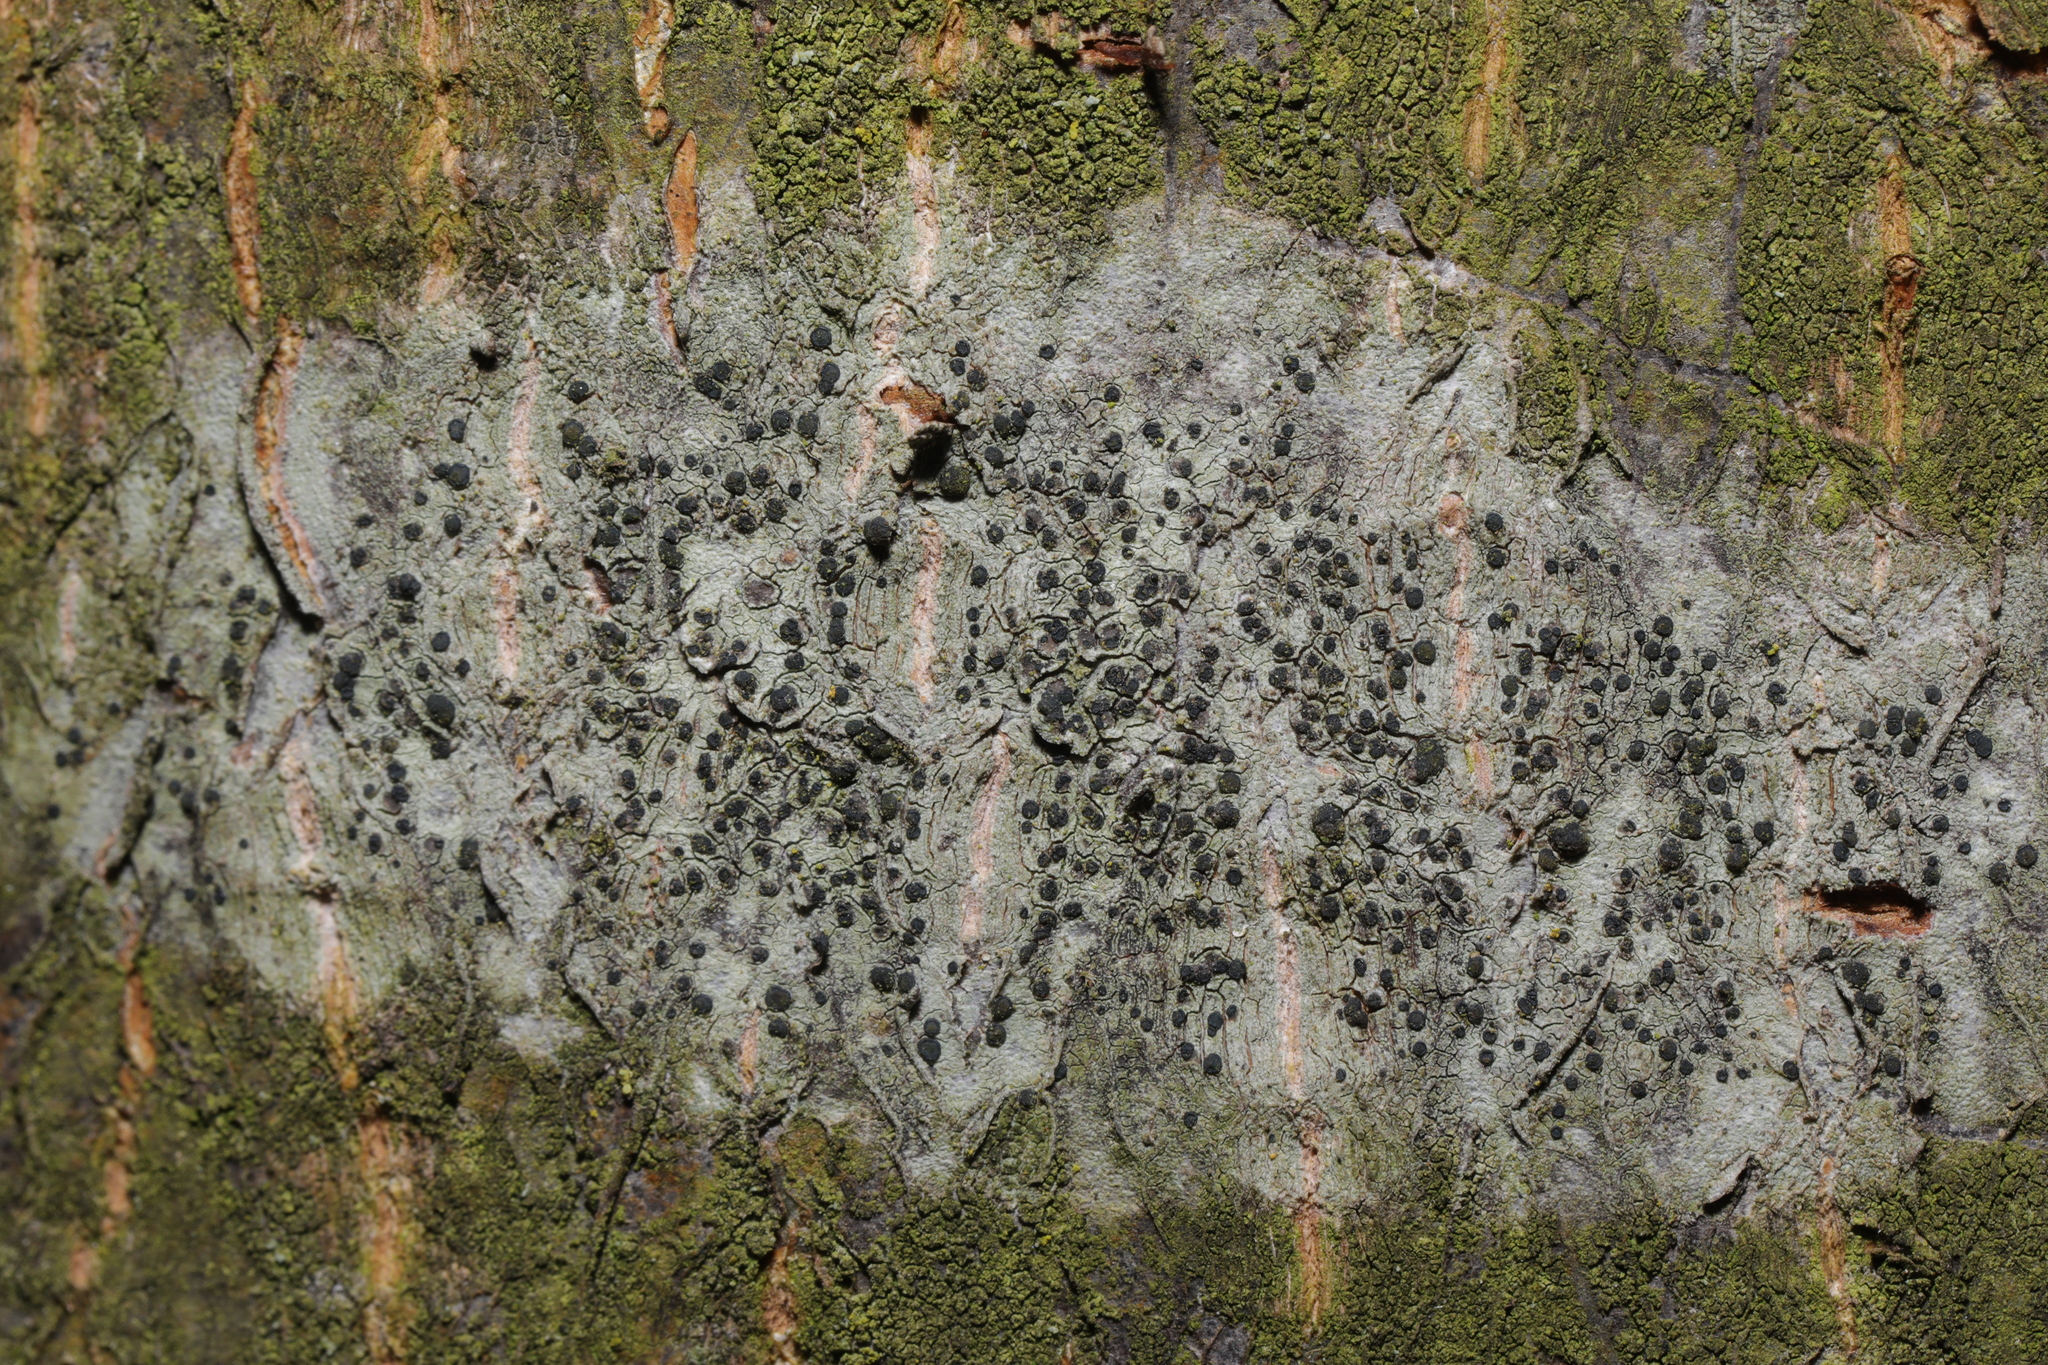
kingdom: Fungi
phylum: Ascomycota
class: Lecanoromycetes
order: Lecanorales
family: Lecanoraceae
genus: Lecidella
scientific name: Lecidella elaeochroma
